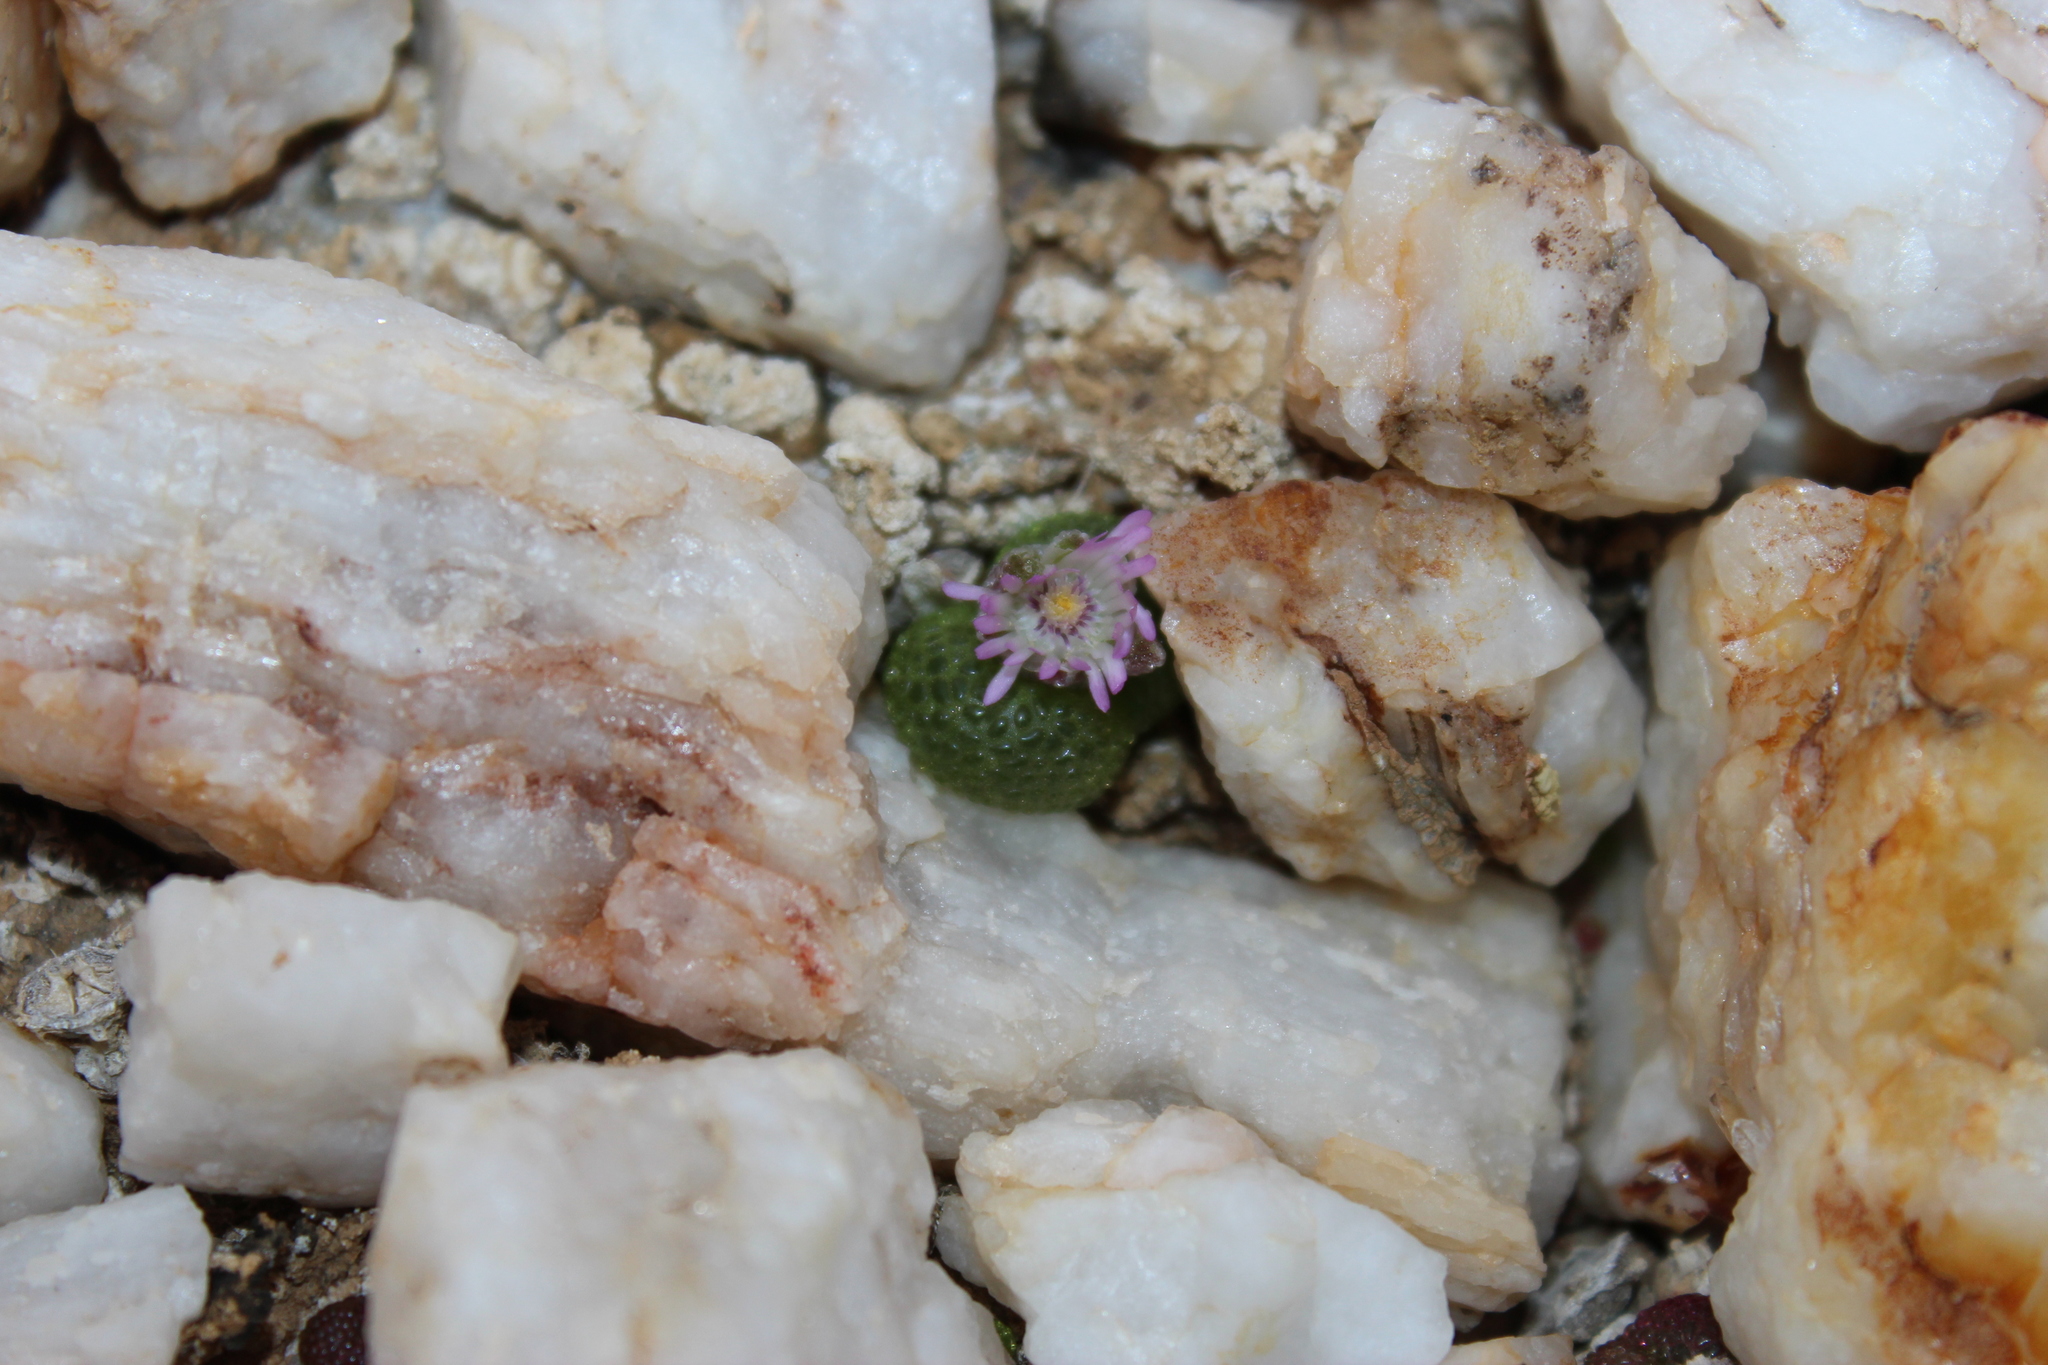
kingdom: Plantae
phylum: Tracheophyta
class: Magnoliopsida
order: Caryophyllales
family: Aizoaceae
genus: Diplosoma
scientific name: Diplosoma luckhoffii
